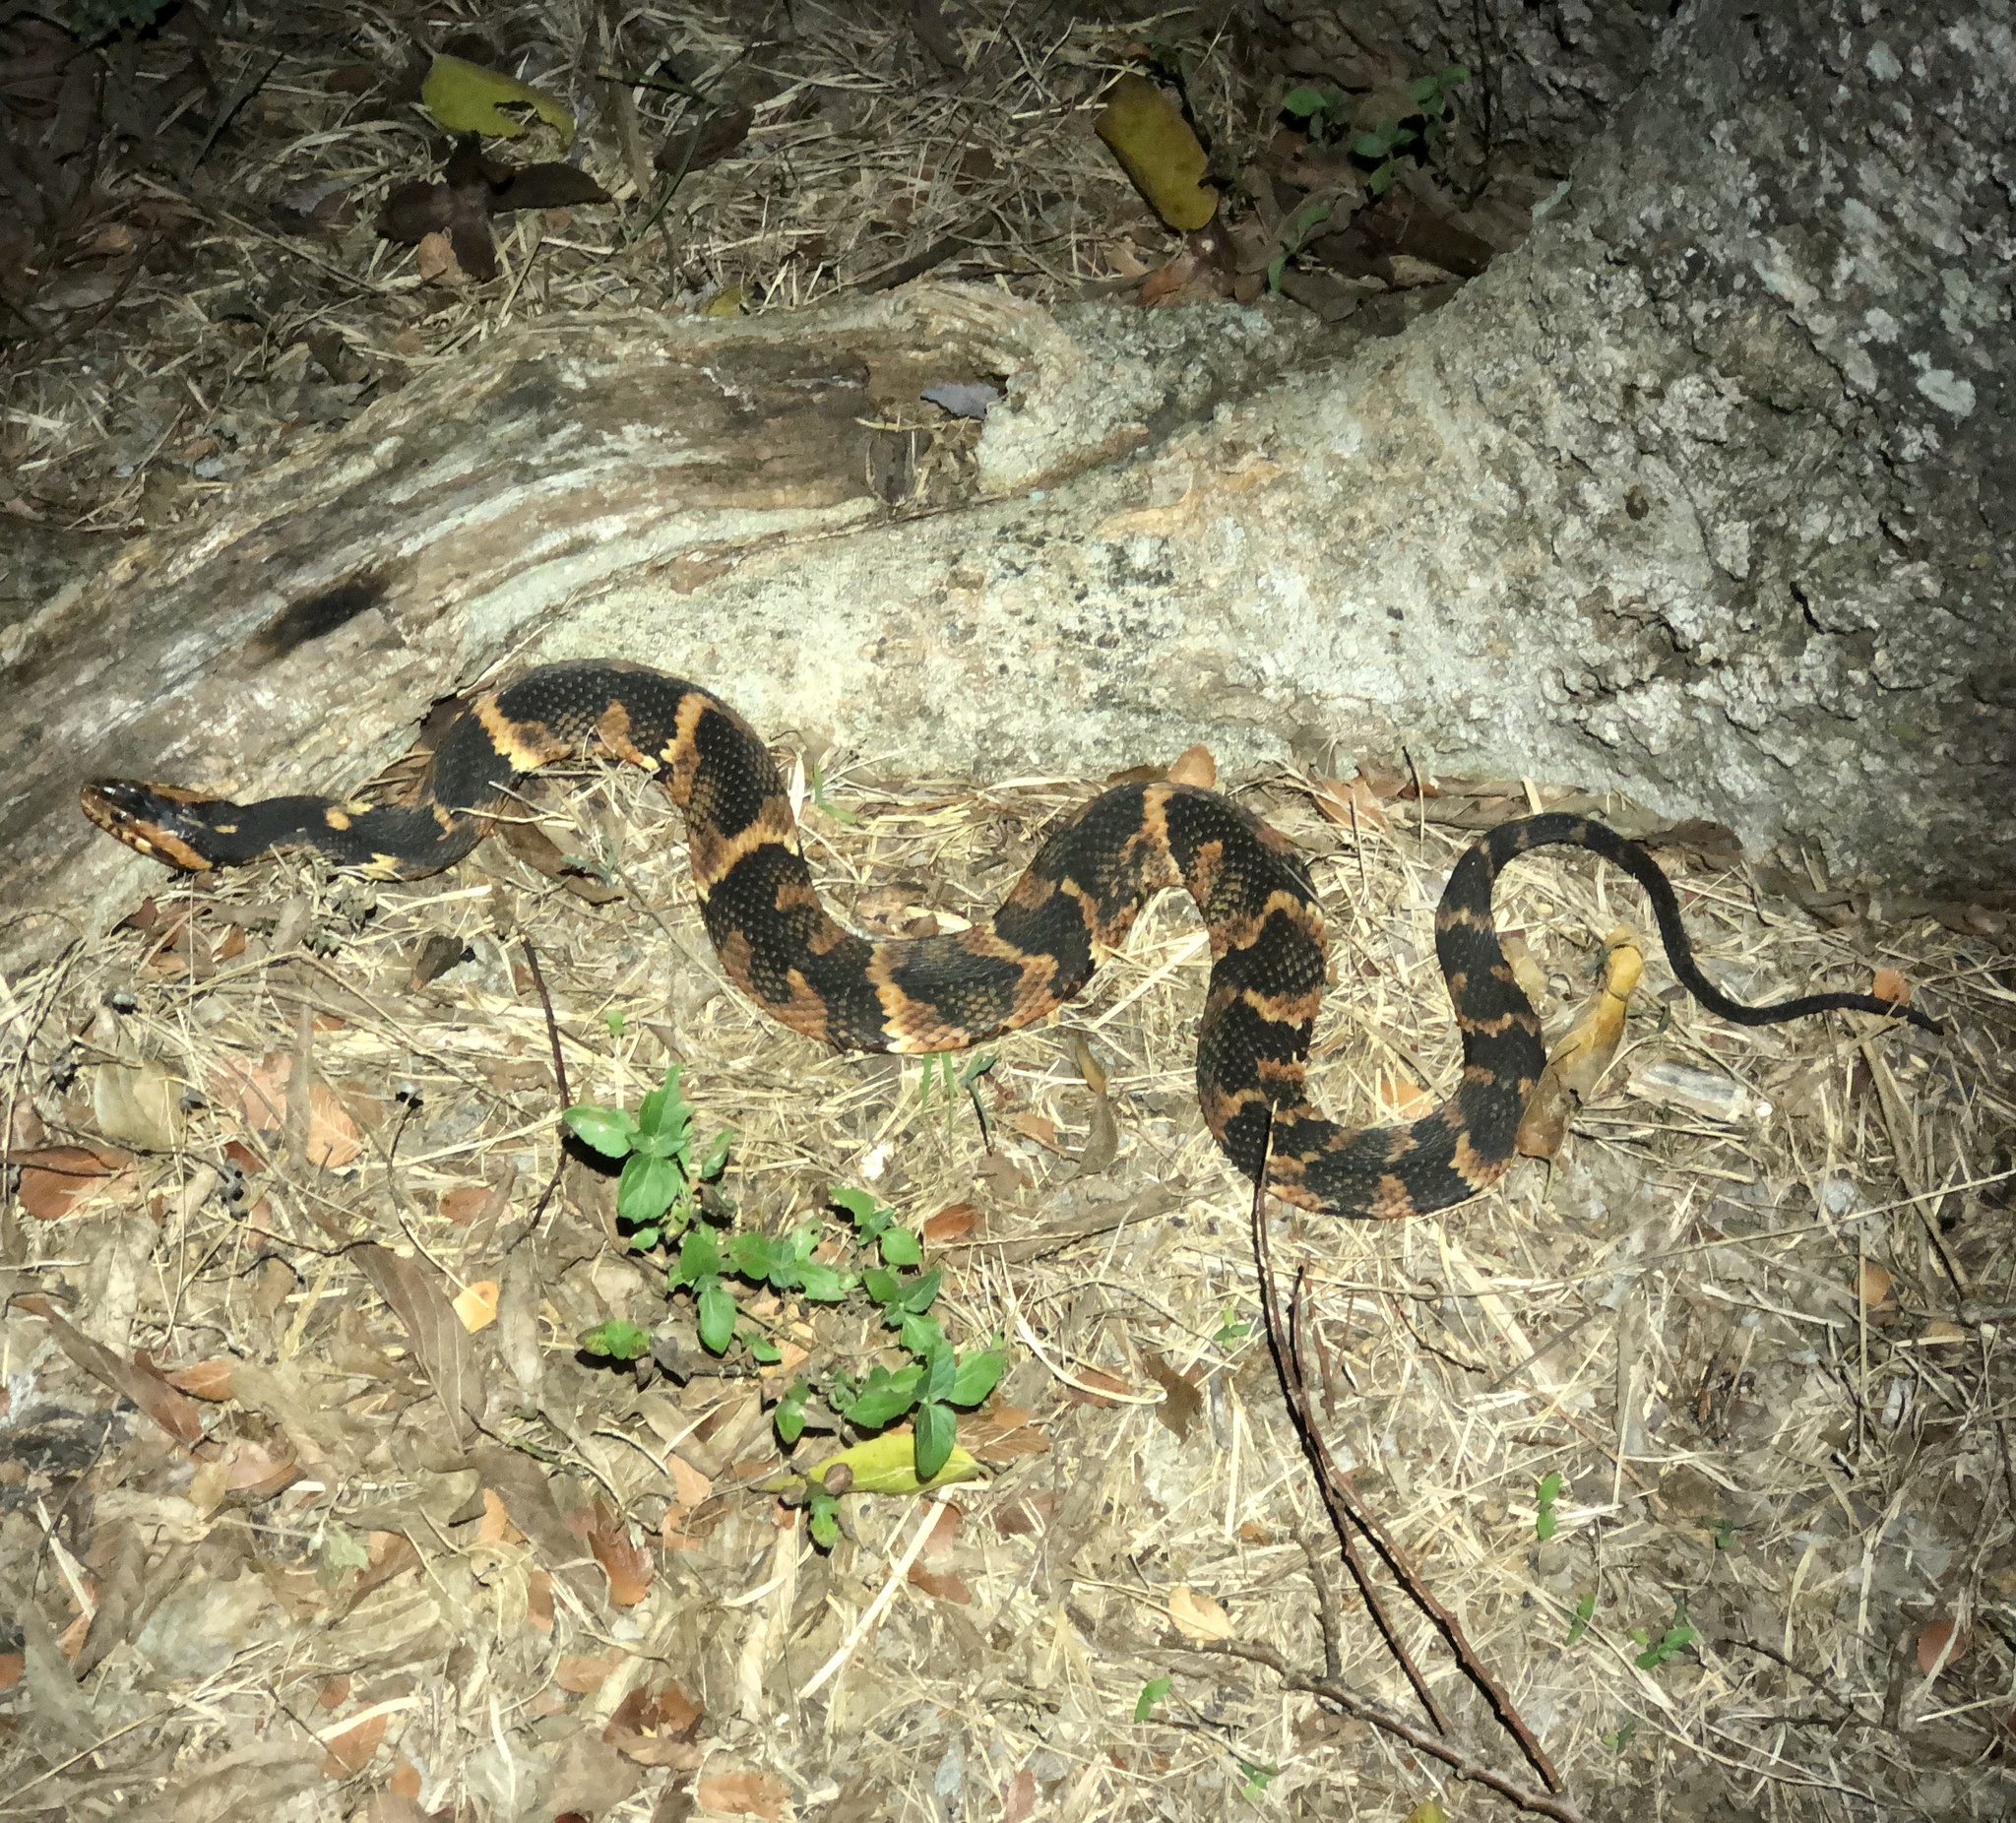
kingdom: Animalia
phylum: Chordata
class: Squamata
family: Colubridae
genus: Nerodia
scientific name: Nerodia fasciata
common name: Southern water snake
